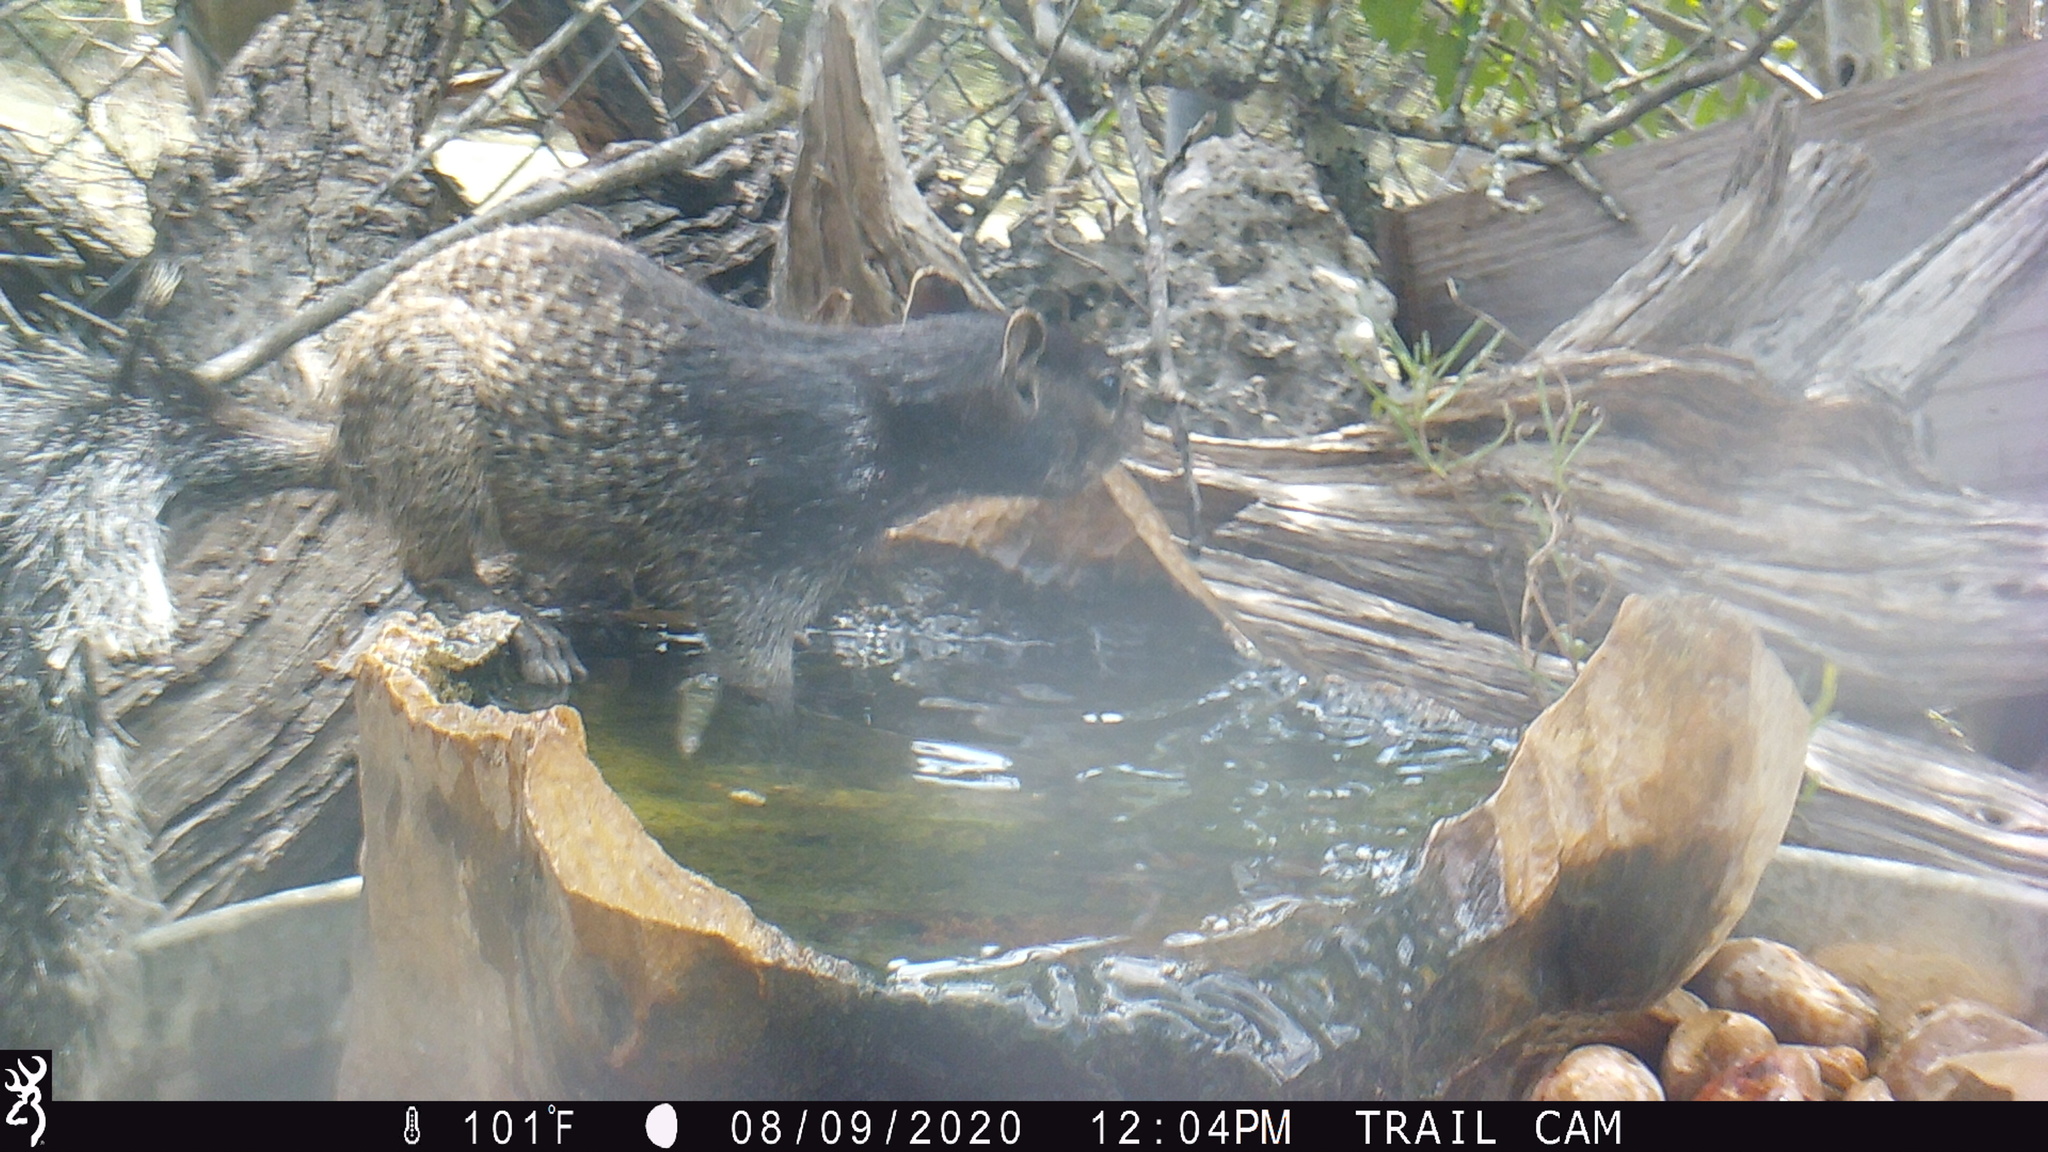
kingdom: Animalia
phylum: Chordata
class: Mammalia
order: Rodentia
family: Sciuridae
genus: Otospermophilus
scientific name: Otospermophilus variegatus
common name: Rock squirrel
